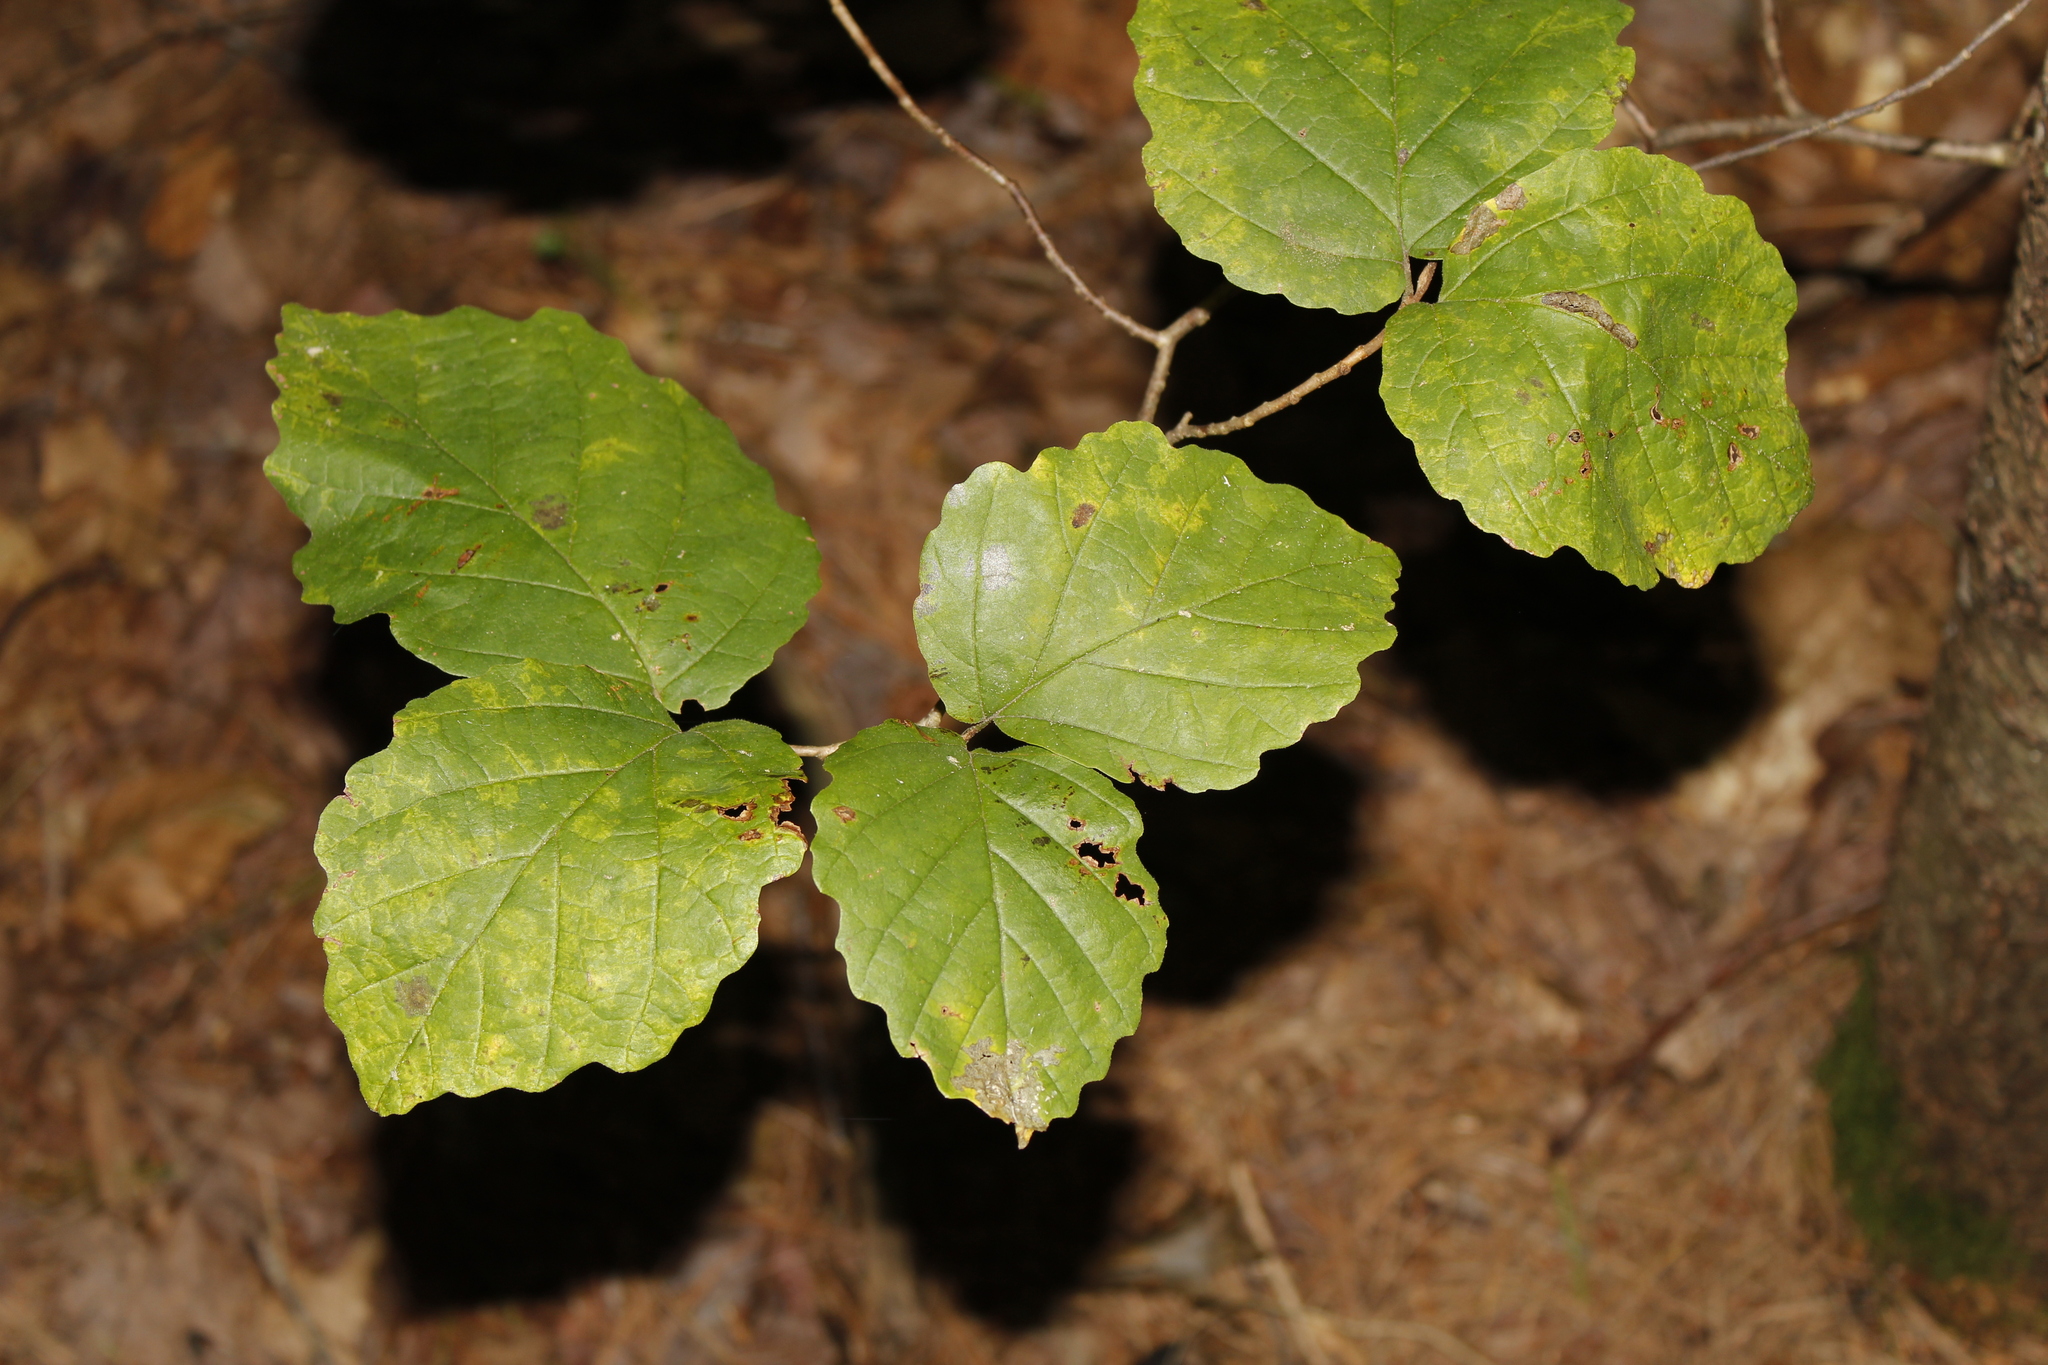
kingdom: Plantae
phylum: Tracheophyta
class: Magnoliopsida
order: Saxifragales
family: Hamamelidaceae
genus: Hamamelis
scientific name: Hamamelis virginiana
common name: Witch-hazel
